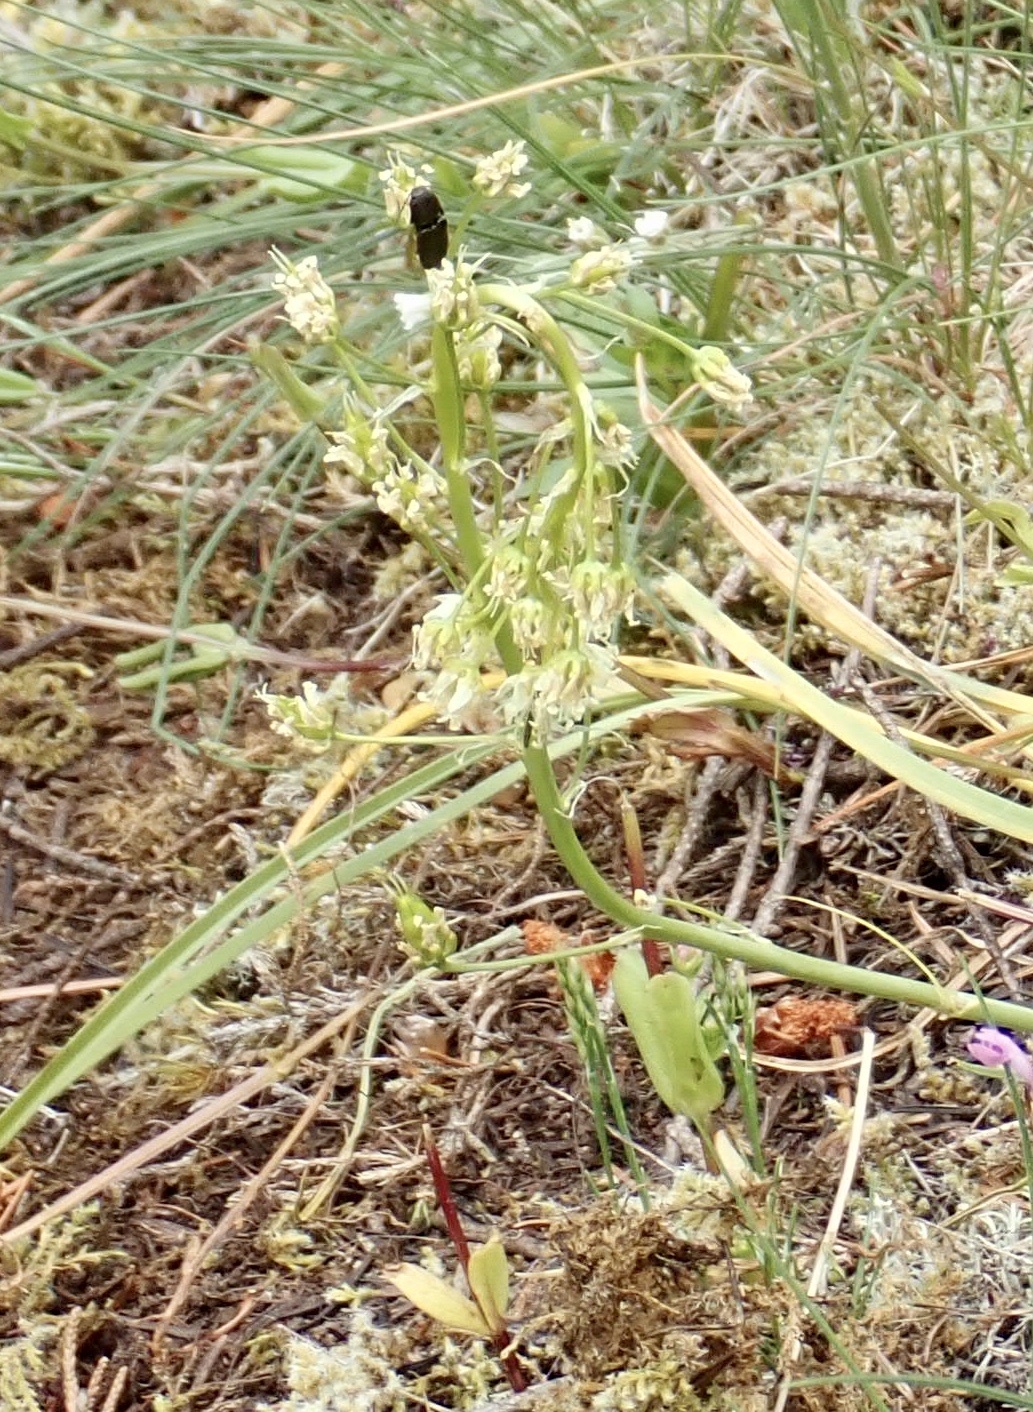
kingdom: Plantae
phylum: Tracheophyta
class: Liliopsida
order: Liliales
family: Melanthiaceae
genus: Toxicoscordion
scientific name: Toxicoscordion venenosum
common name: Meadow death camas
